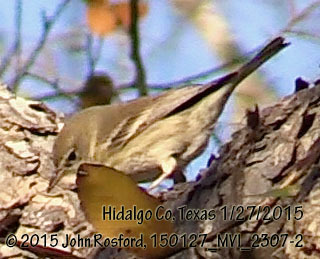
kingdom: Animalia
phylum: Chordata
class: Aves
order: Passeriformes
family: Parulidae
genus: Setophaga
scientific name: Setophaga pinus
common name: Pine warbler
